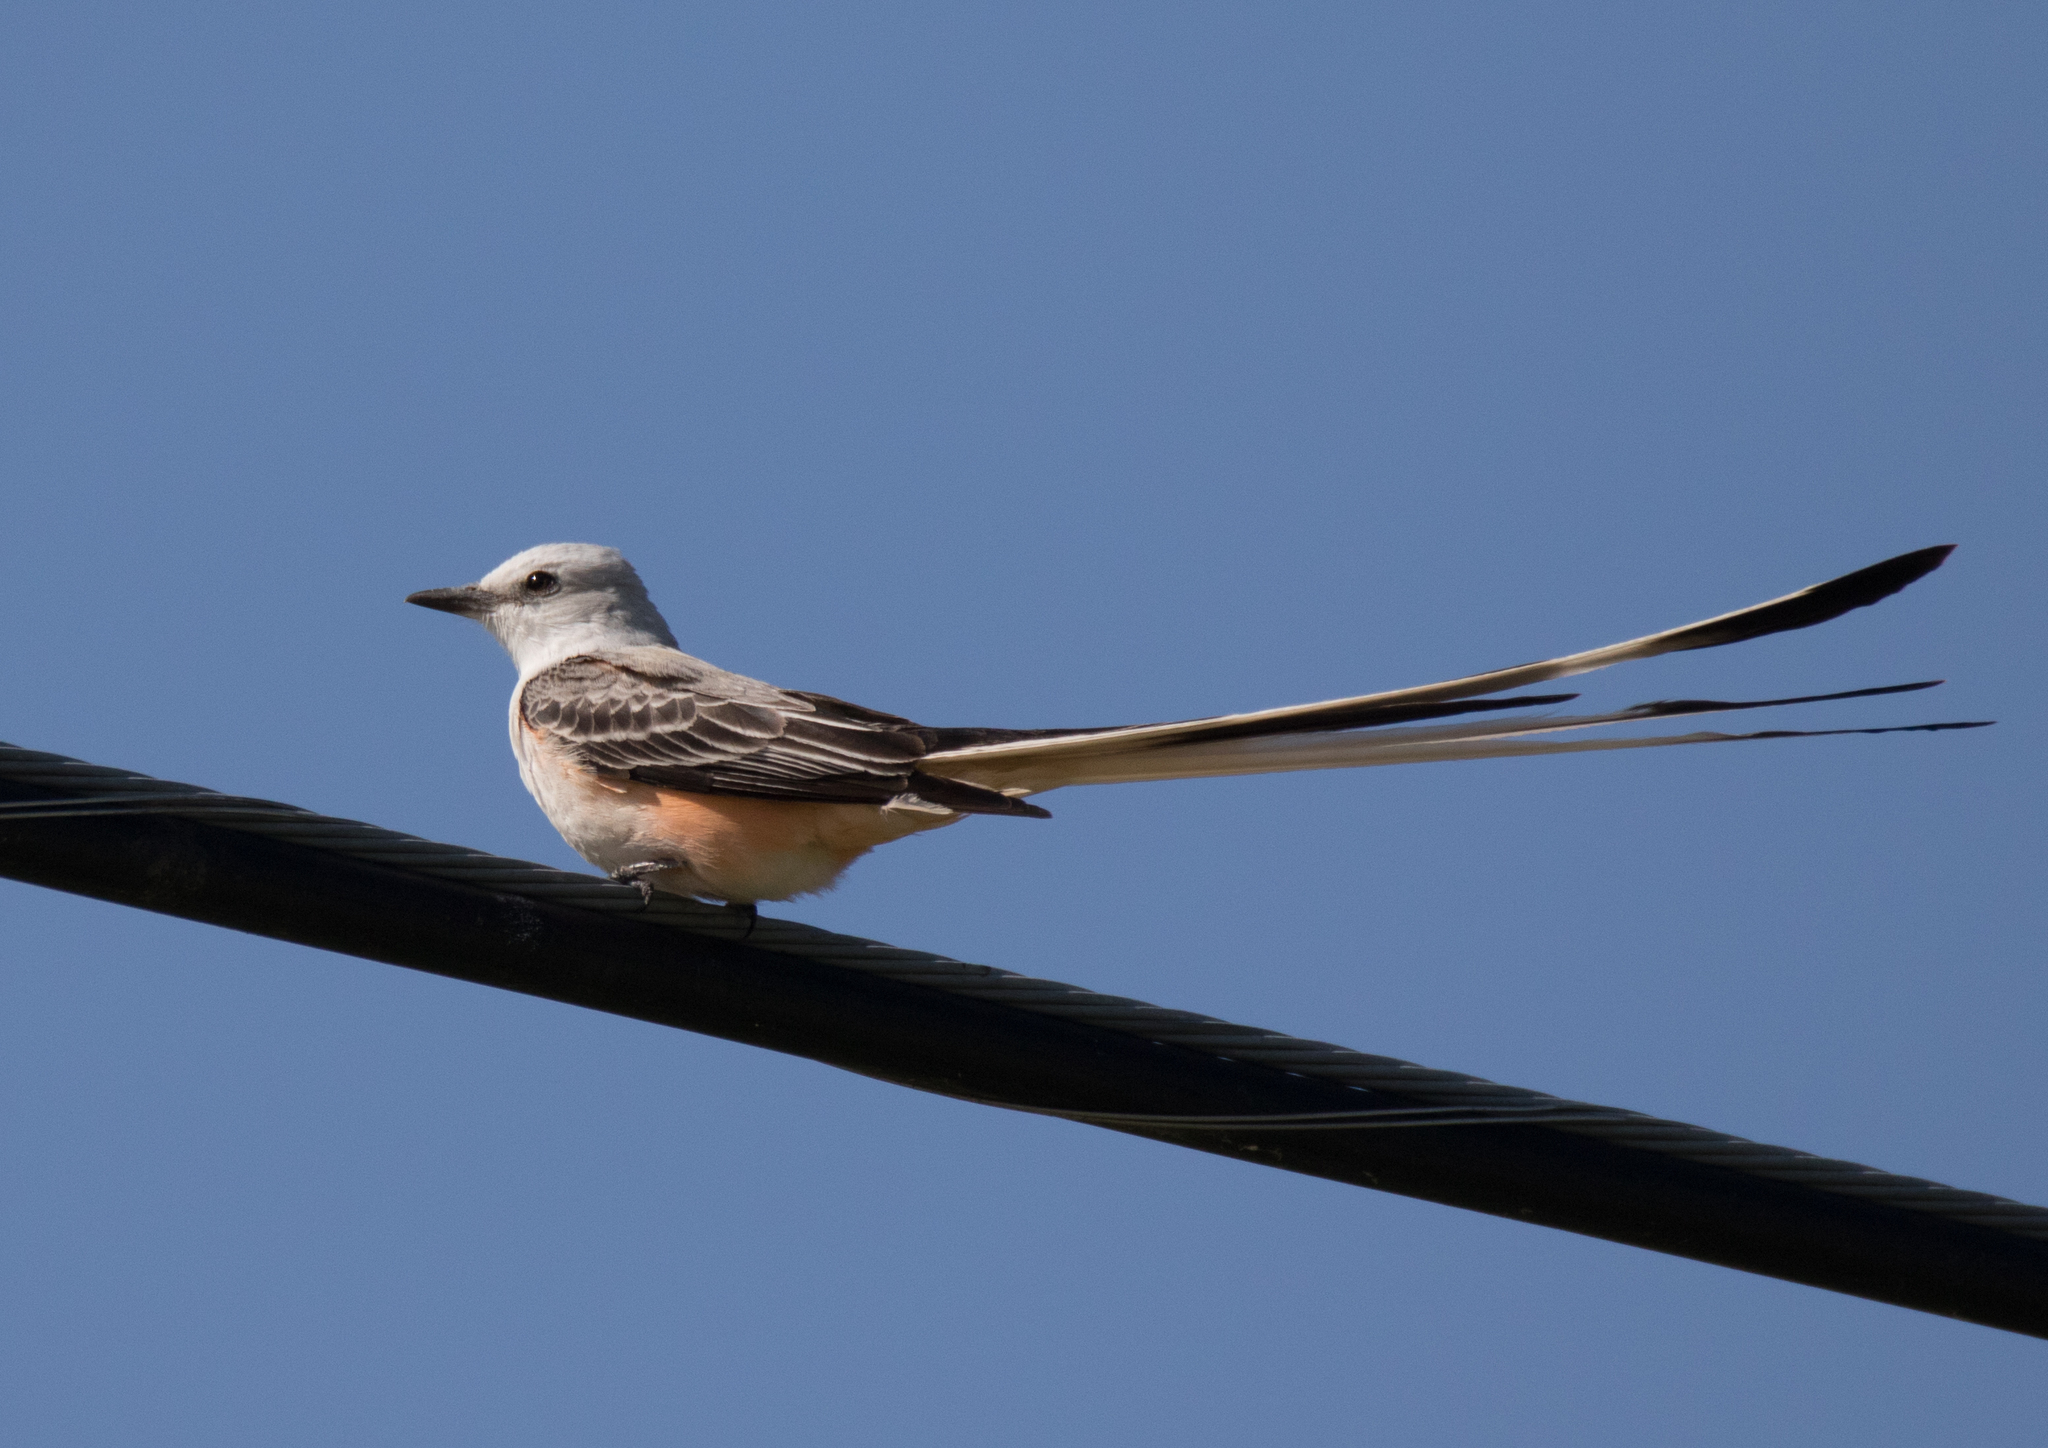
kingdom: Animalia
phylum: Chordata
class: Aves
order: Passeriformes
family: Tyrannidae
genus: Tyrannus
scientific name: Tyrannus forficatus
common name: Scissor-tailed flycatcher
